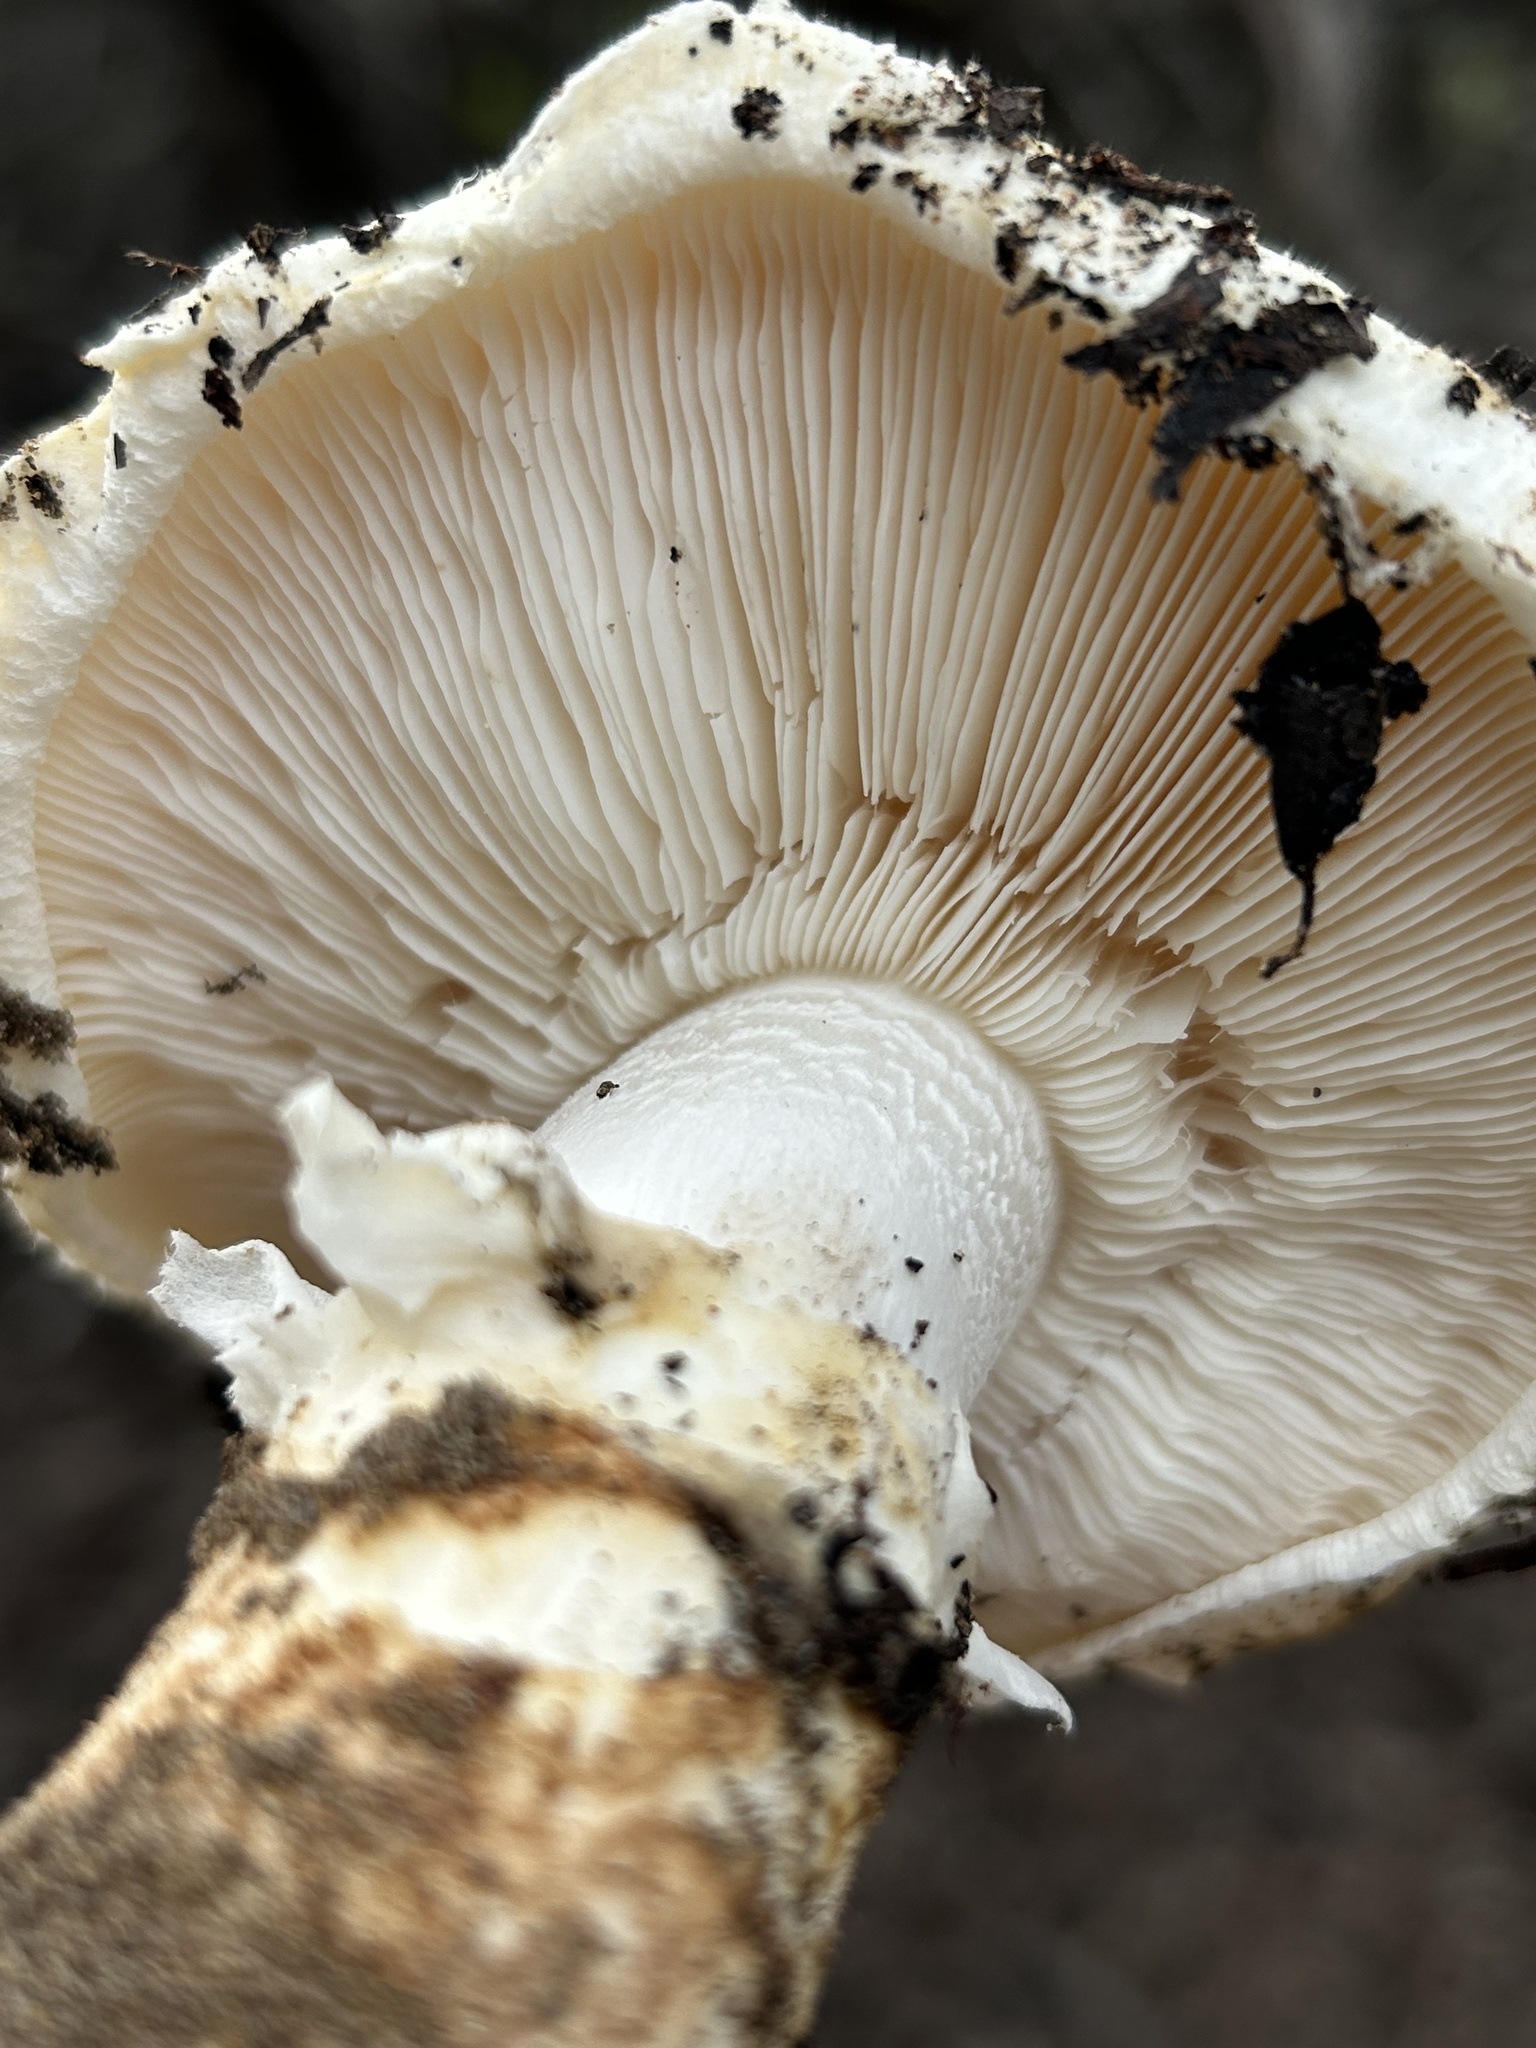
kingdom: Fungi
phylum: Basidiomycota
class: Agaricomycetes
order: Agaricales
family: Tricholomataceae
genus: Tricholoma
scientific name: Tricholoma murrillianum
